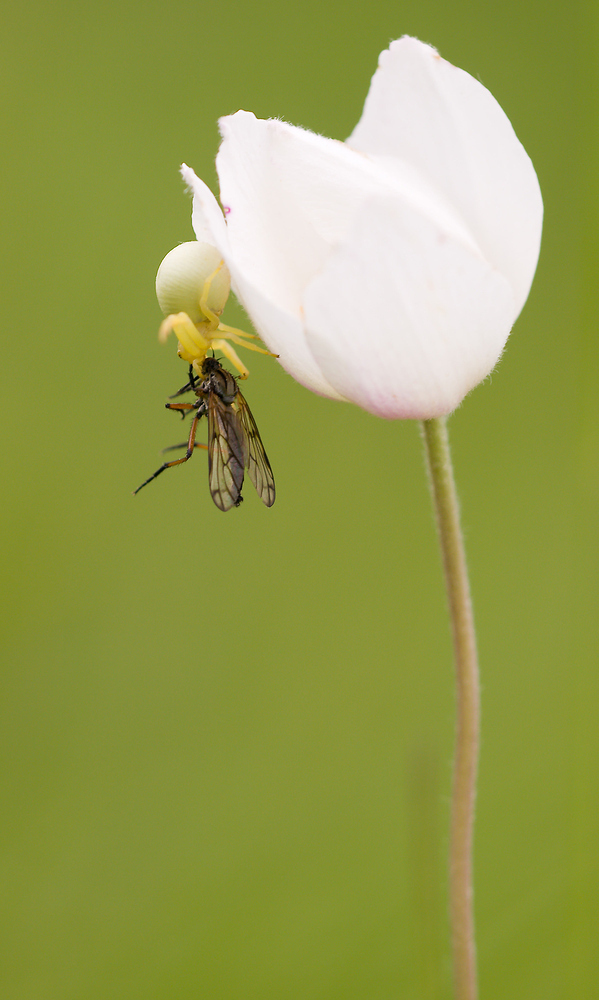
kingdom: Animalia
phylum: Arthropoda
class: Arachnida
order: Araneae
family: Thomisidae
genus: Misumena
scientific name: Misumena vatia
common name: Goldenrod crab spider
